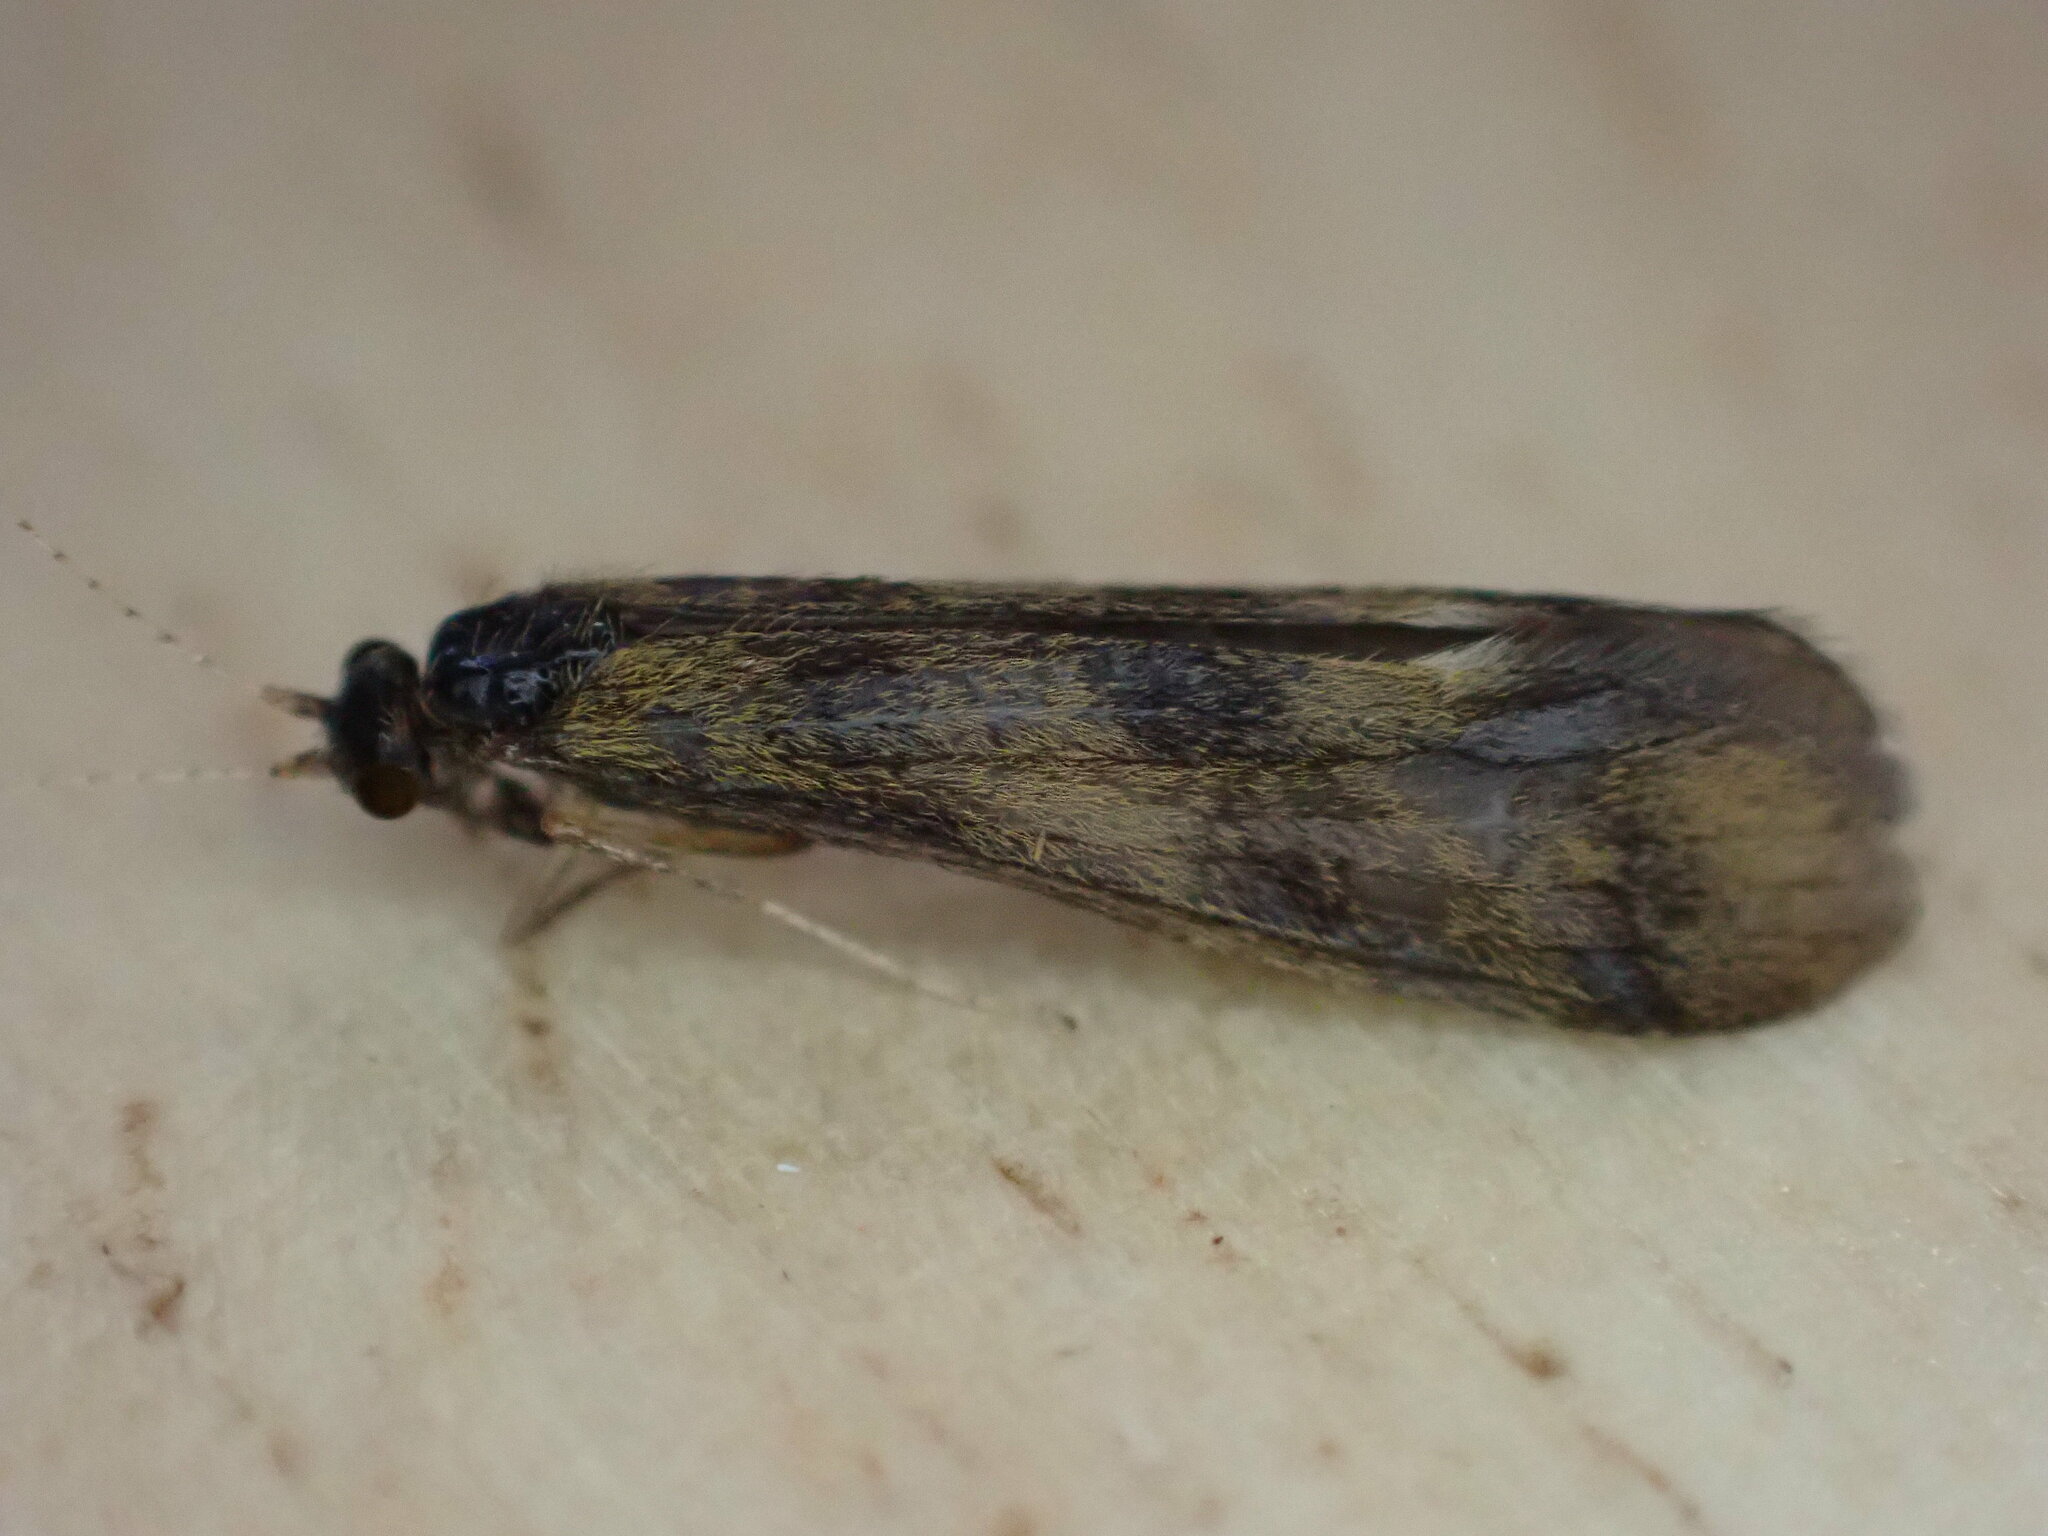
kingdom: Animalia
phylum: Arthropoda
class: Insecta
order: Trichoptera
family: Leptoceridae
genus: Mystacides
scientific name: Mystacides longicornis
